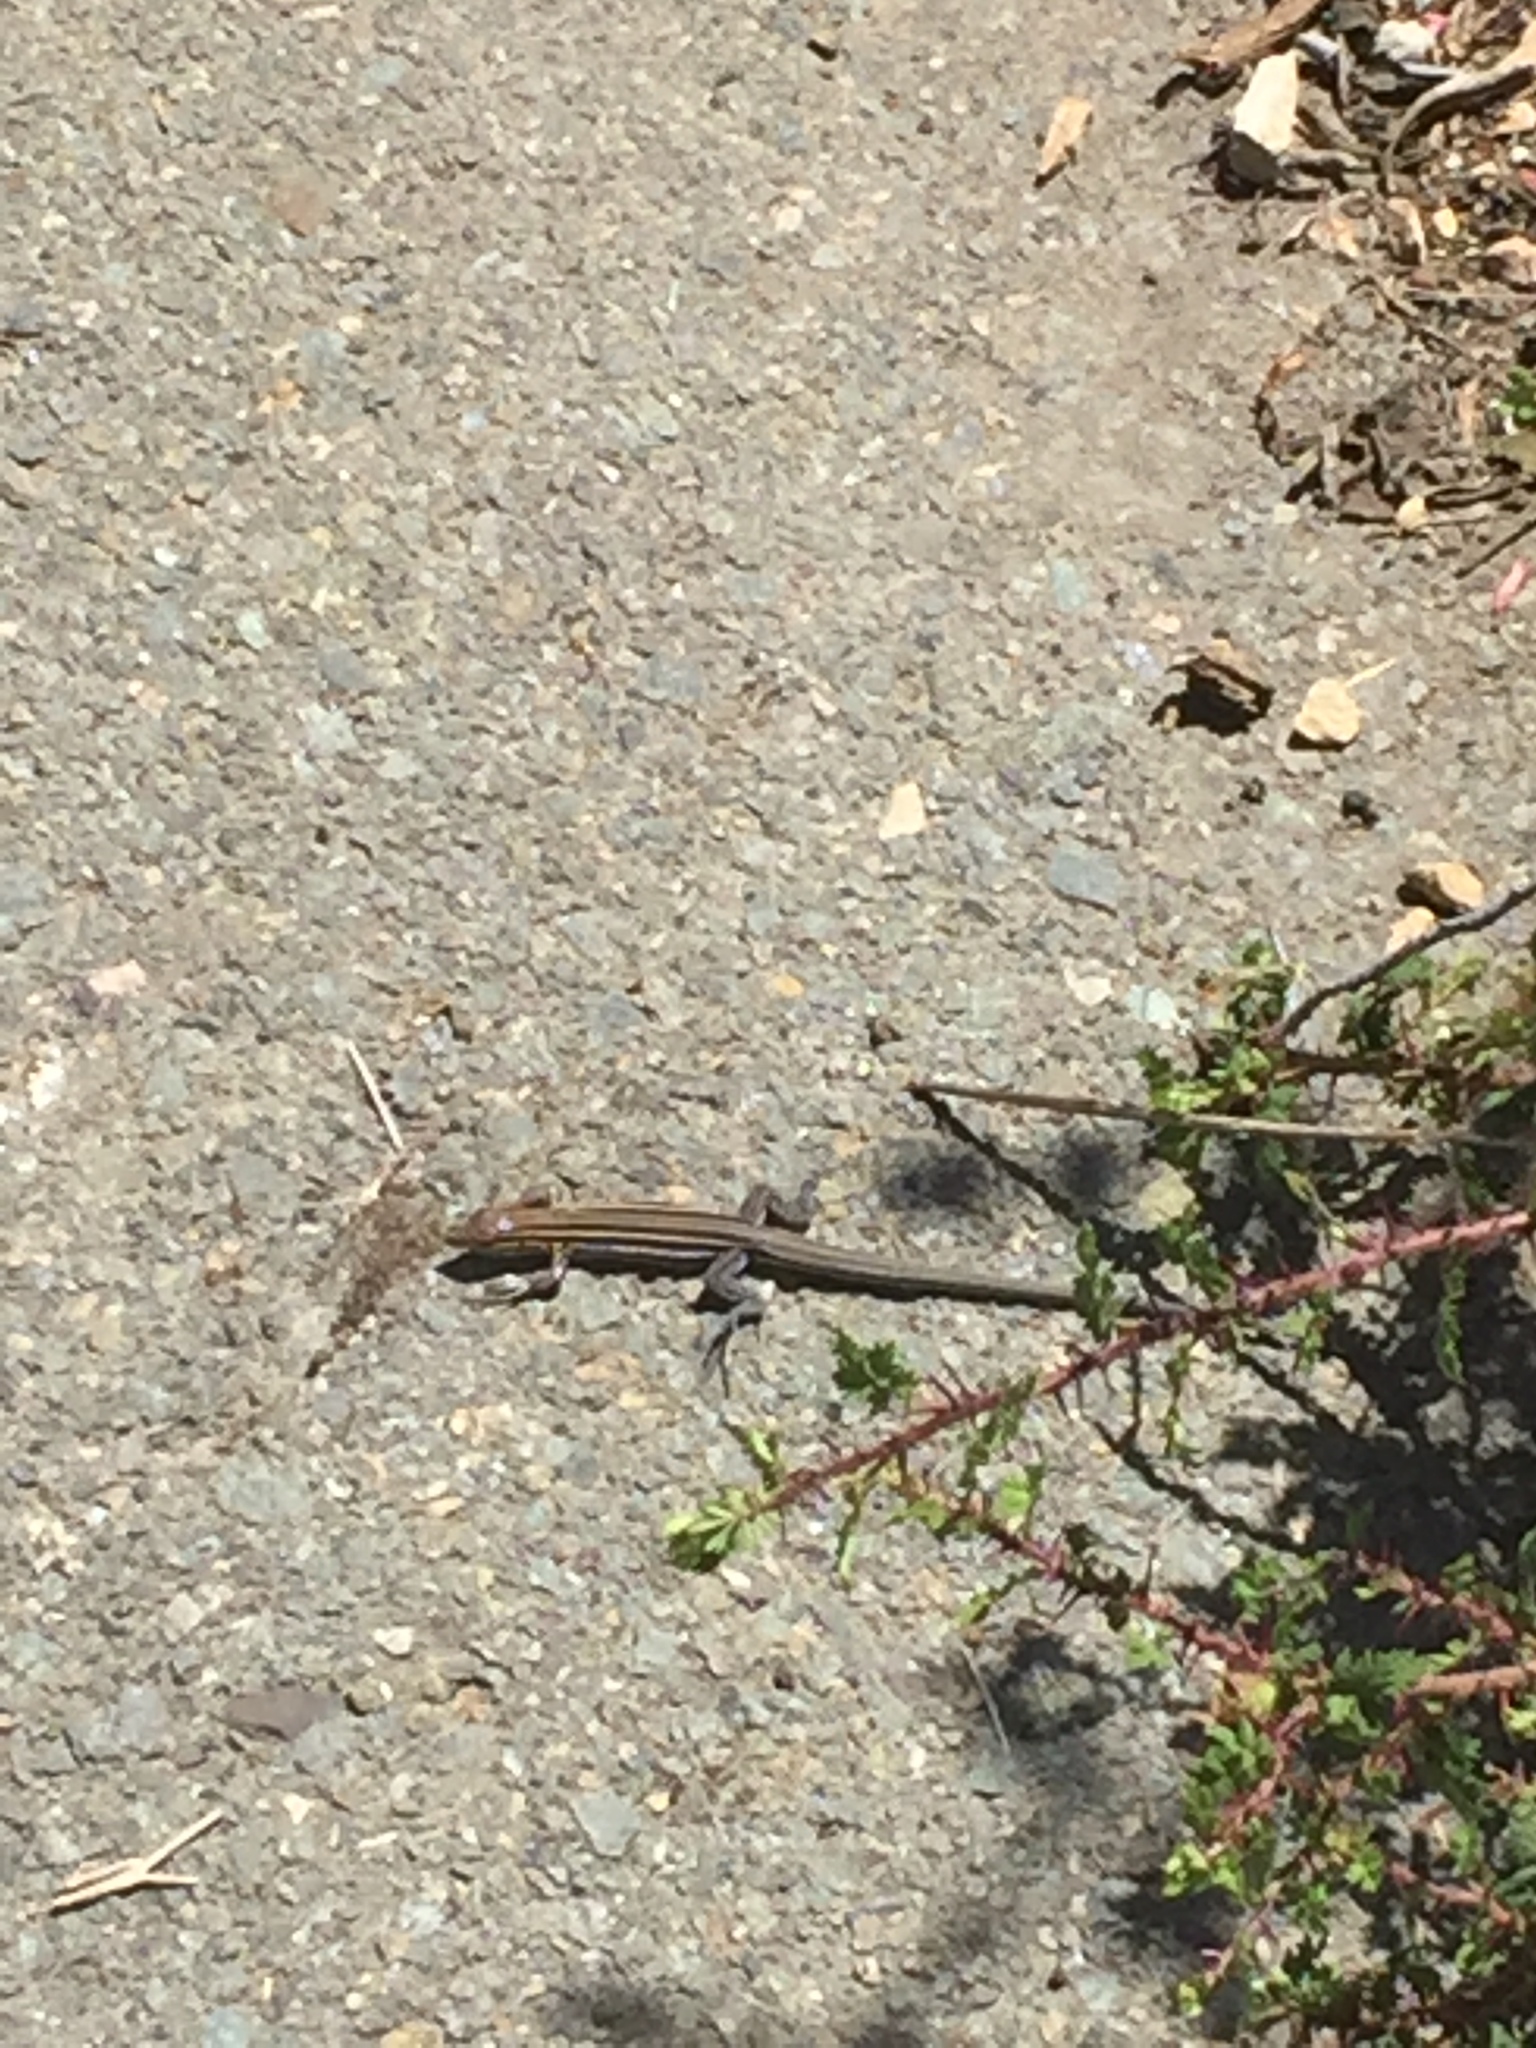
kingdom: Animalia
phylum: Chordata
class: Squamata
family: Teiidae
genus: Aspidoscelis
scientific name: Aspidoscelis hyperythrus
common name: Orange-throated race-runner
